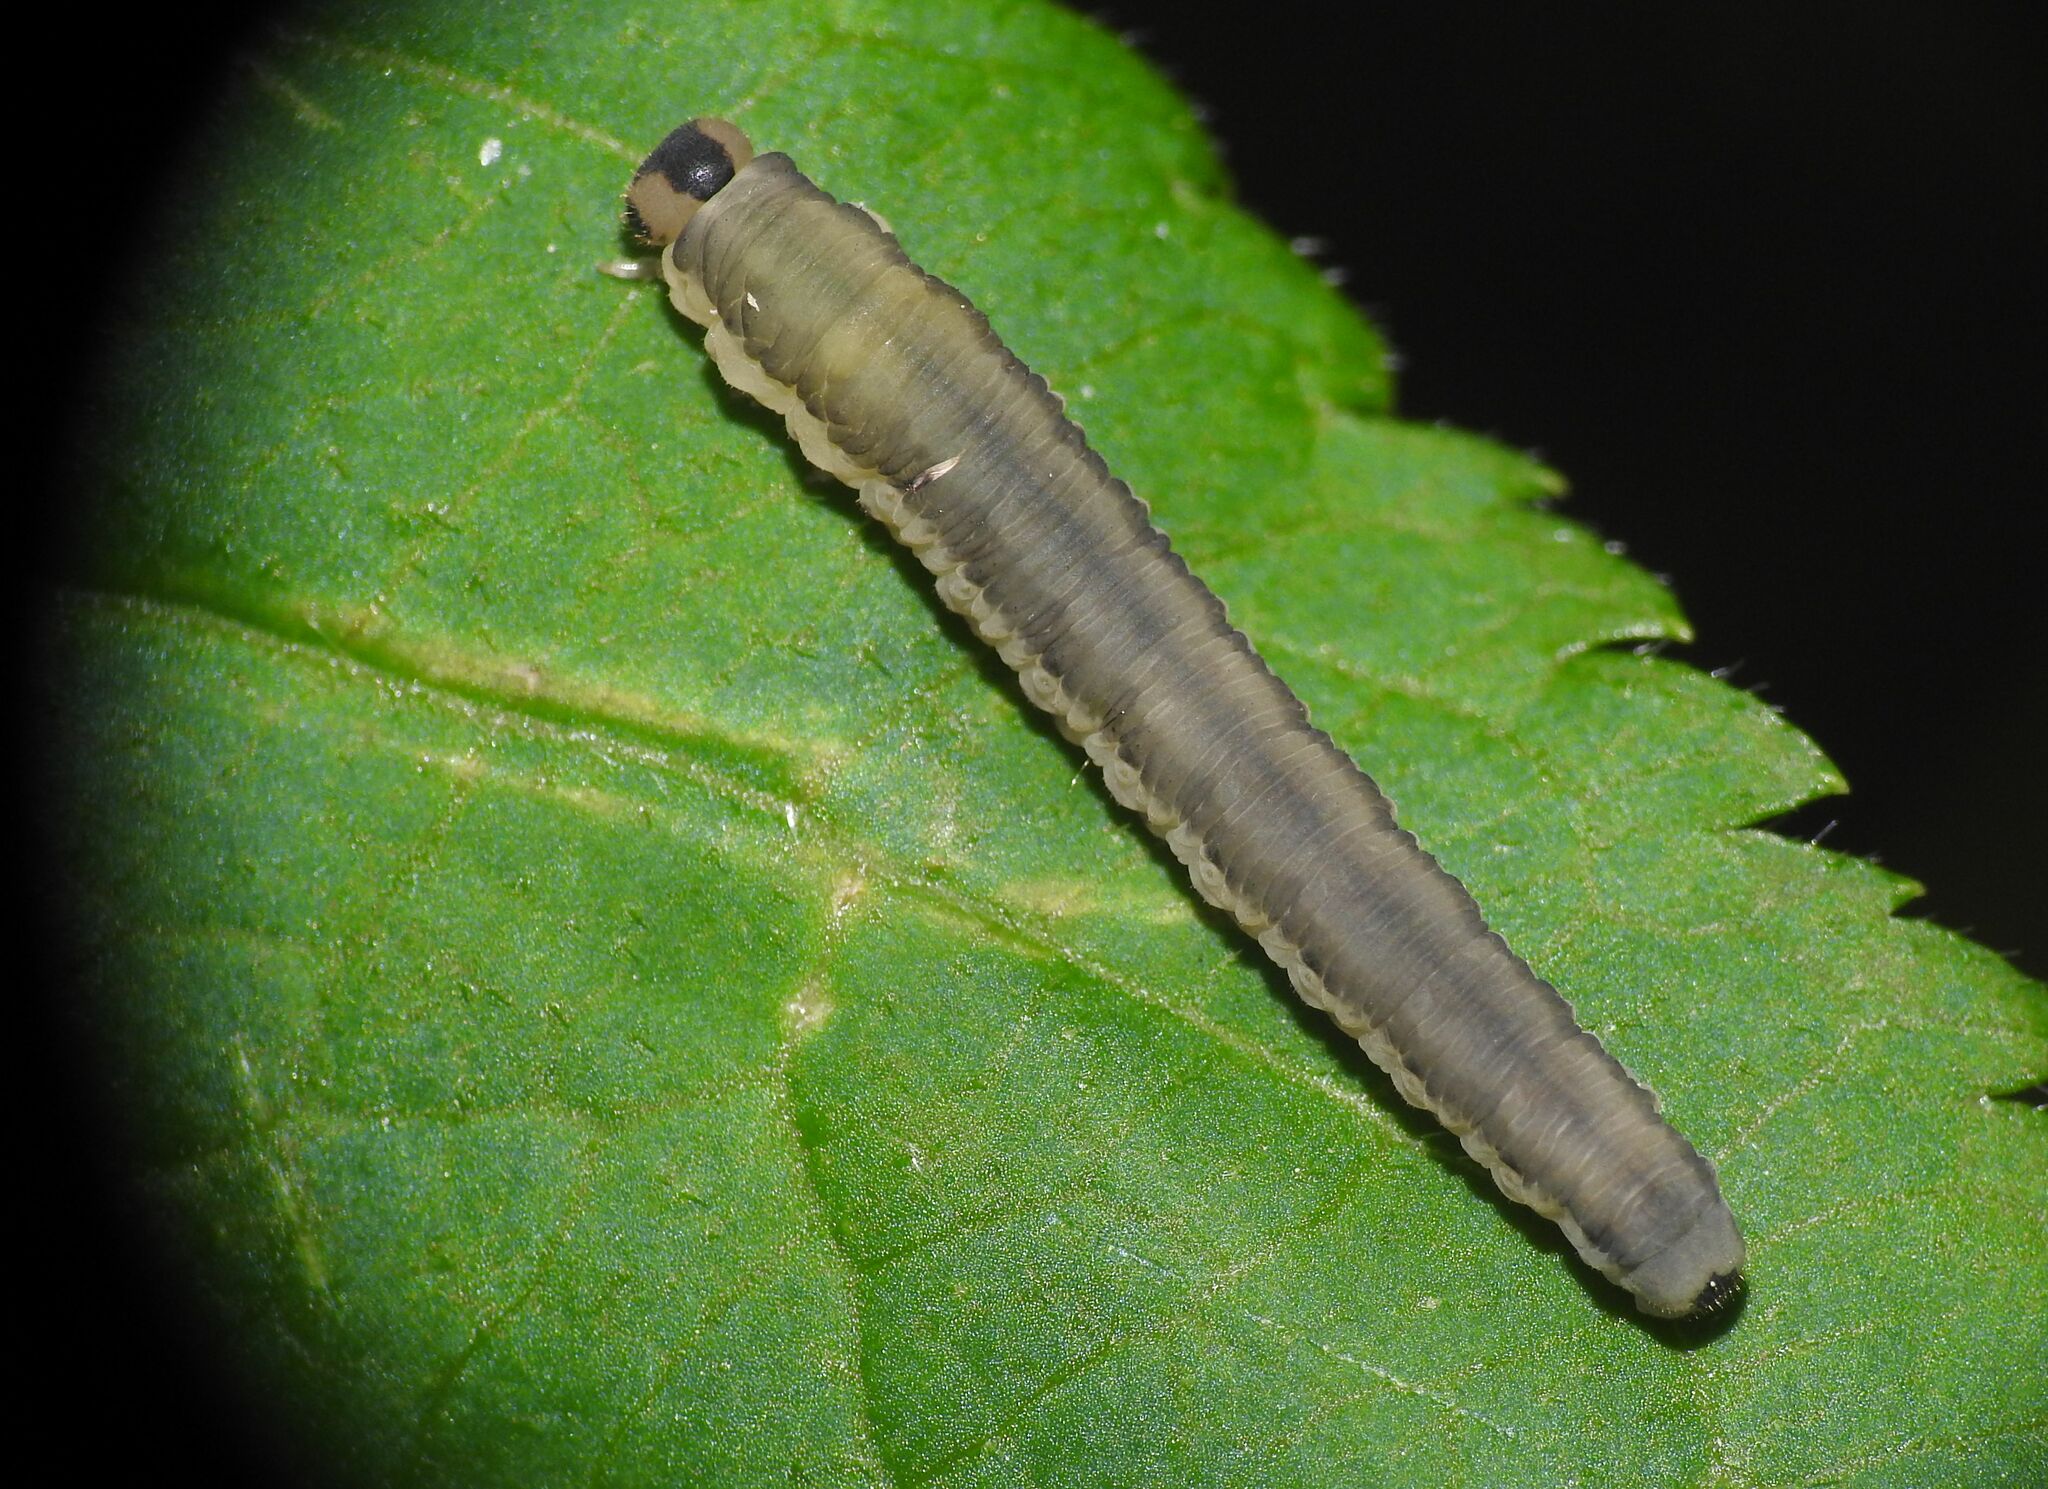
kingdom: Animalia
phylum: Arthropoda
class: Insecta
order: Hymenoptera
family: Tenthredinidae
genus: Macrophya
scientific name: Macrophya alboannulata
